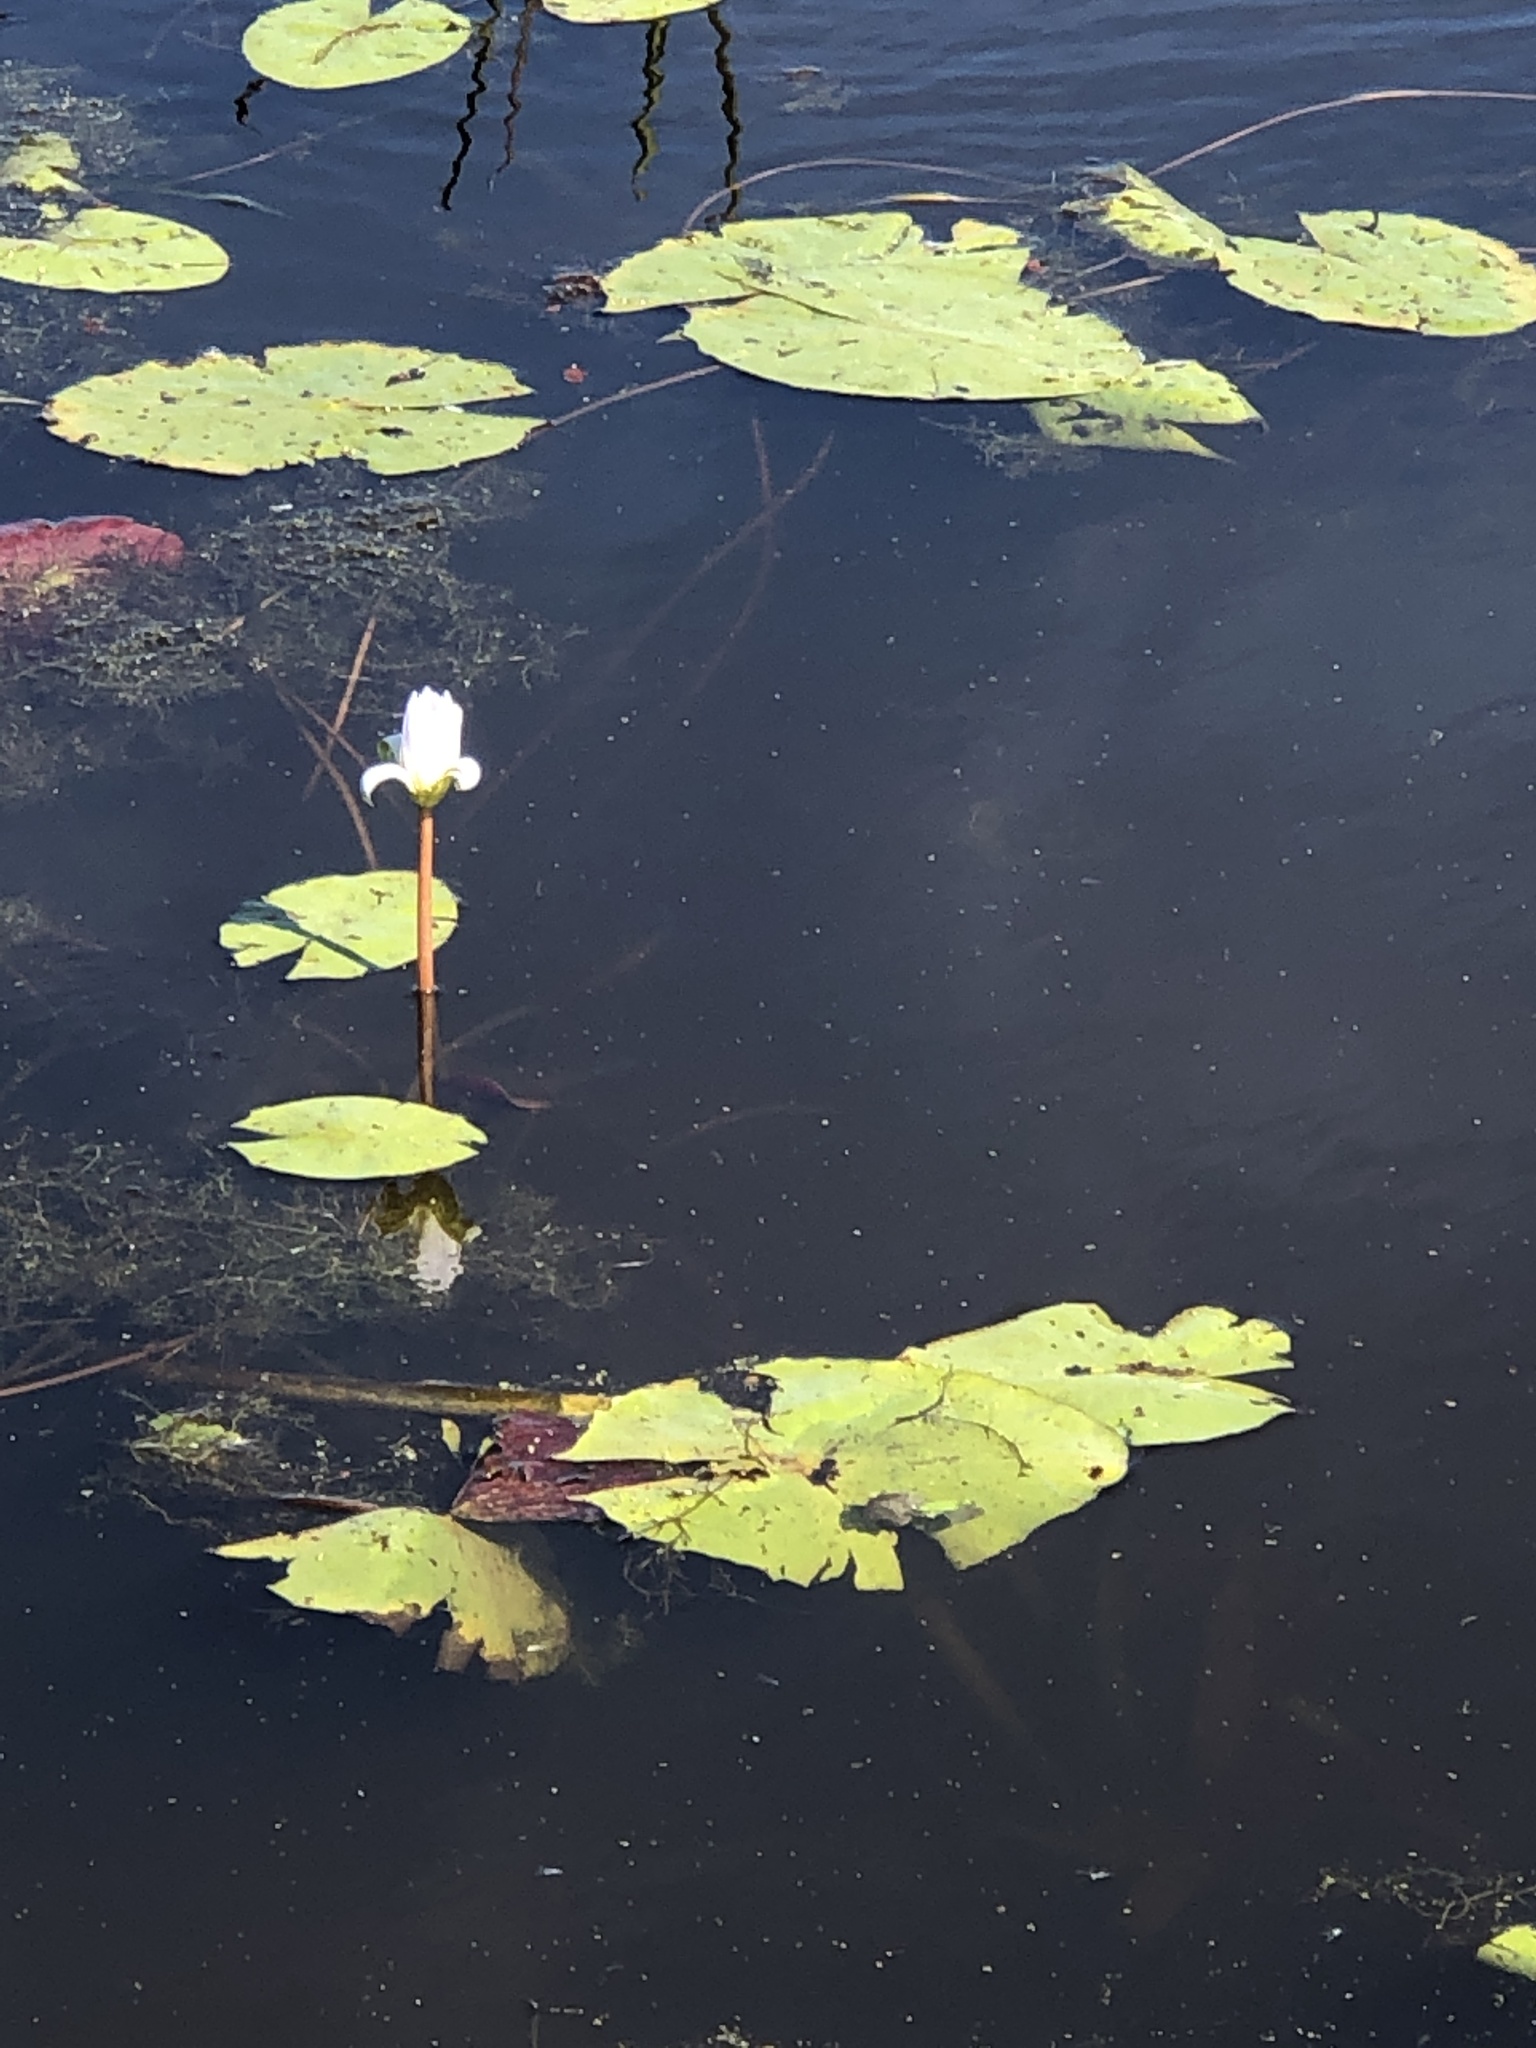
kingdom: Plantae
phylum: Tracheophyta
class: Magnoliopsida
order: Nymphaeales
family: Nymphaeaceae
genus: Nymphaea
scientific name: Nymphaea odorata
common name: Fragrant water-lily
